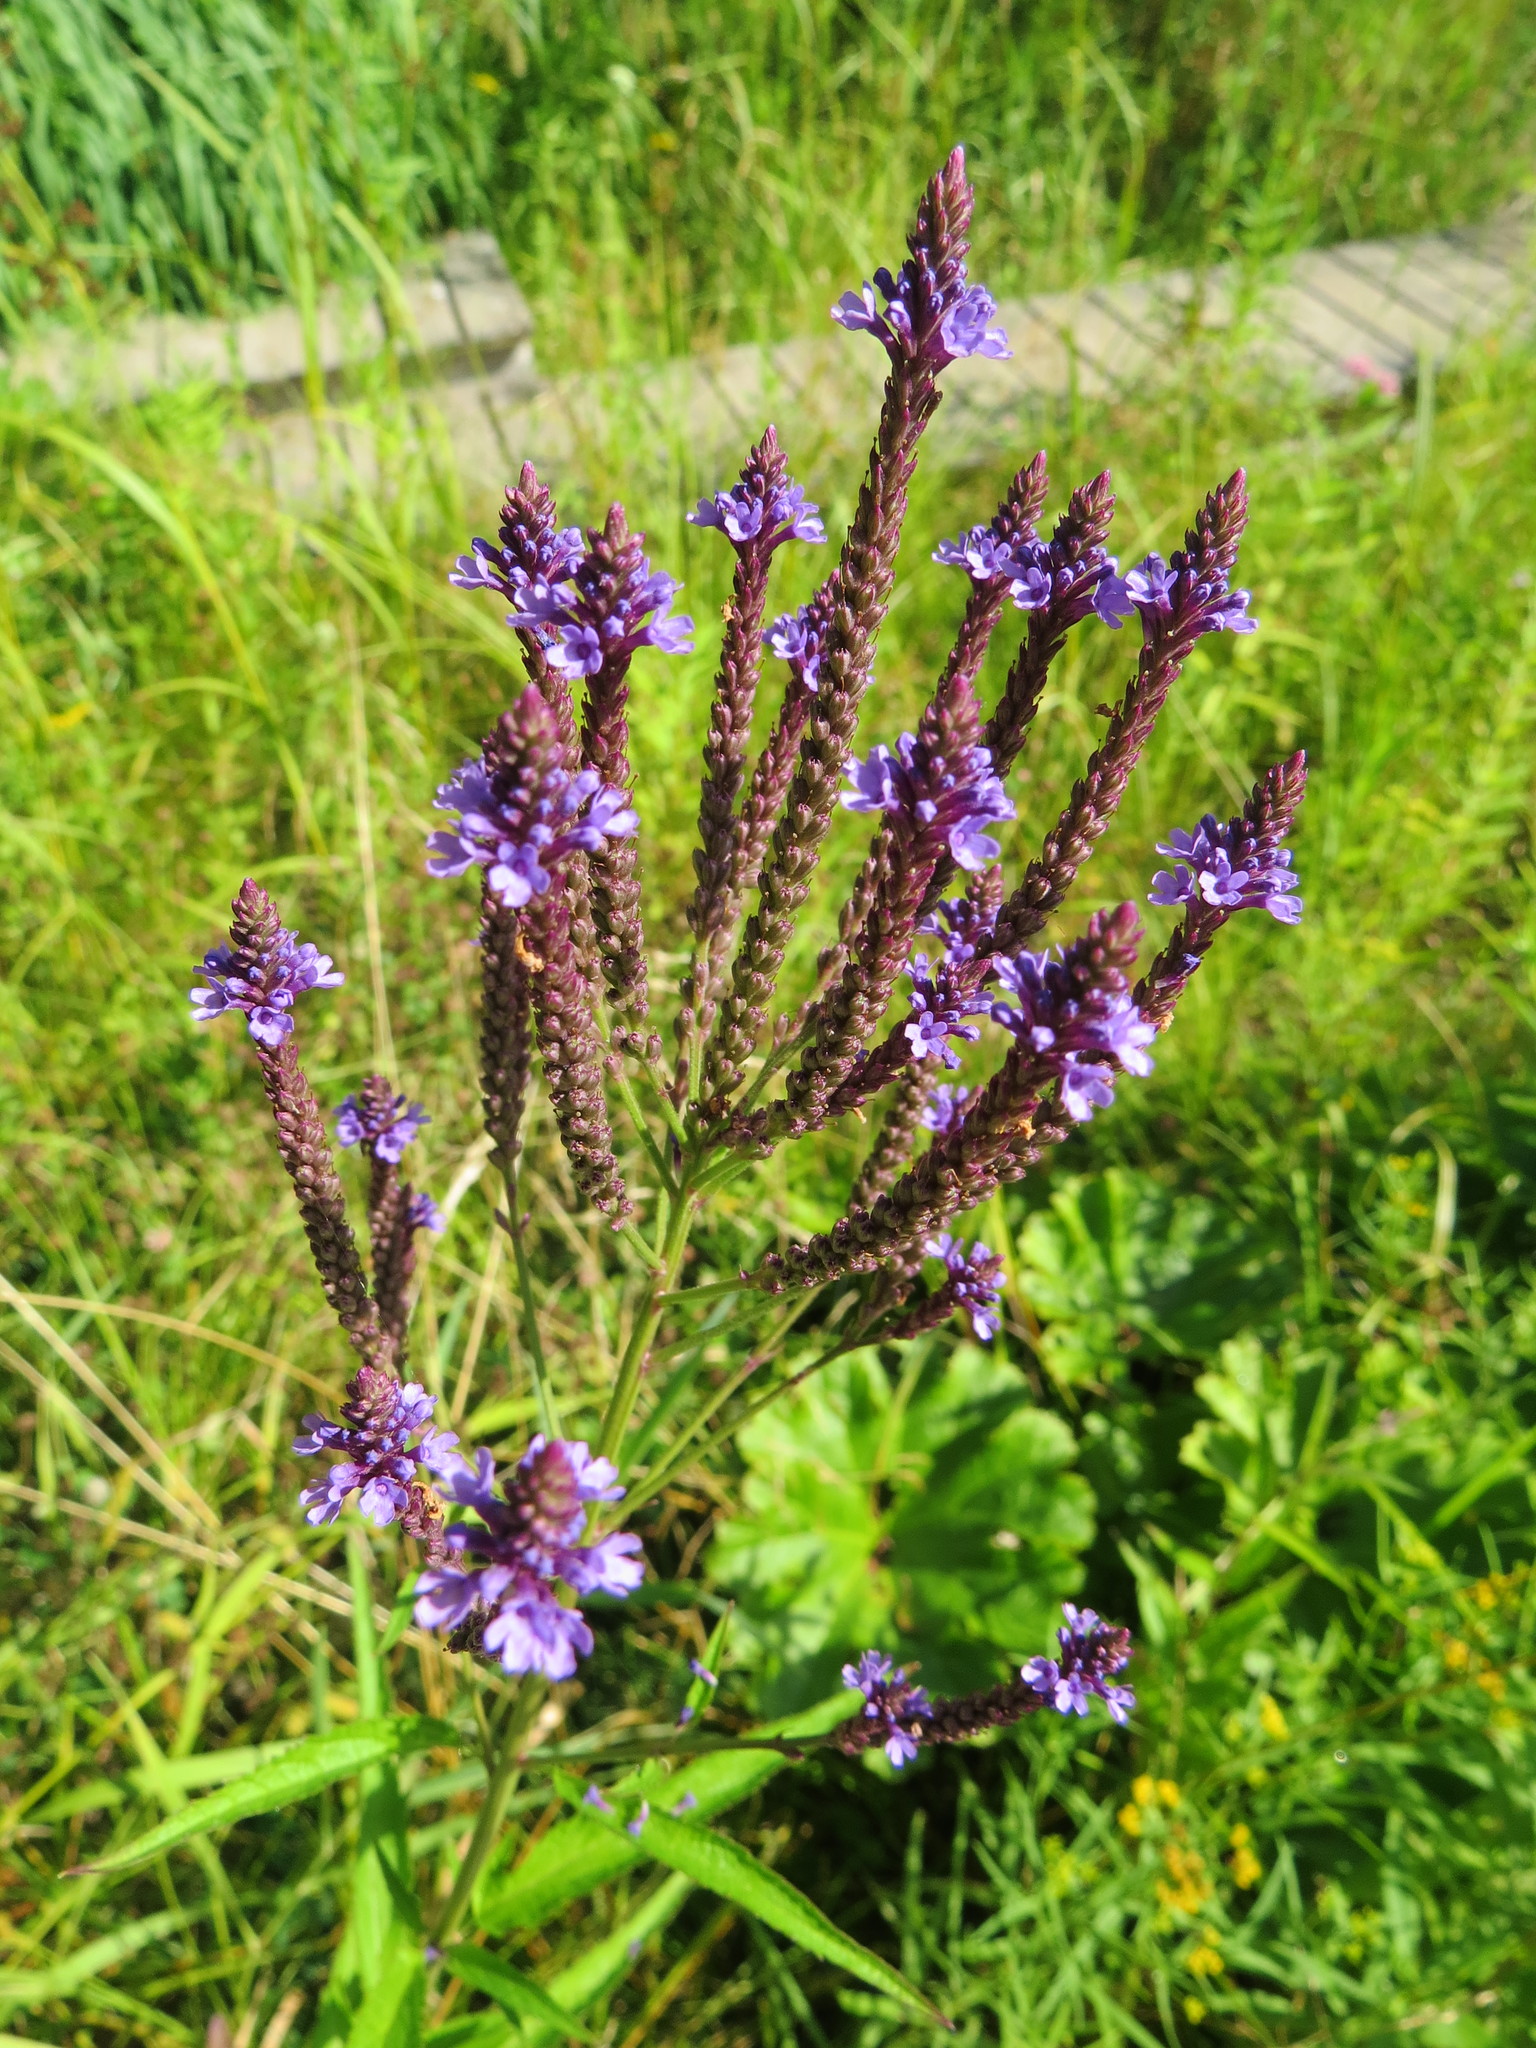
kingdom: Plantae
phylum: Tracheophyta
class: Magnoliopsida
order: Lamiales
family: Verbenaceae
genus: Verbena
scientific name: Verbena hastata
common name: American blue vervain
